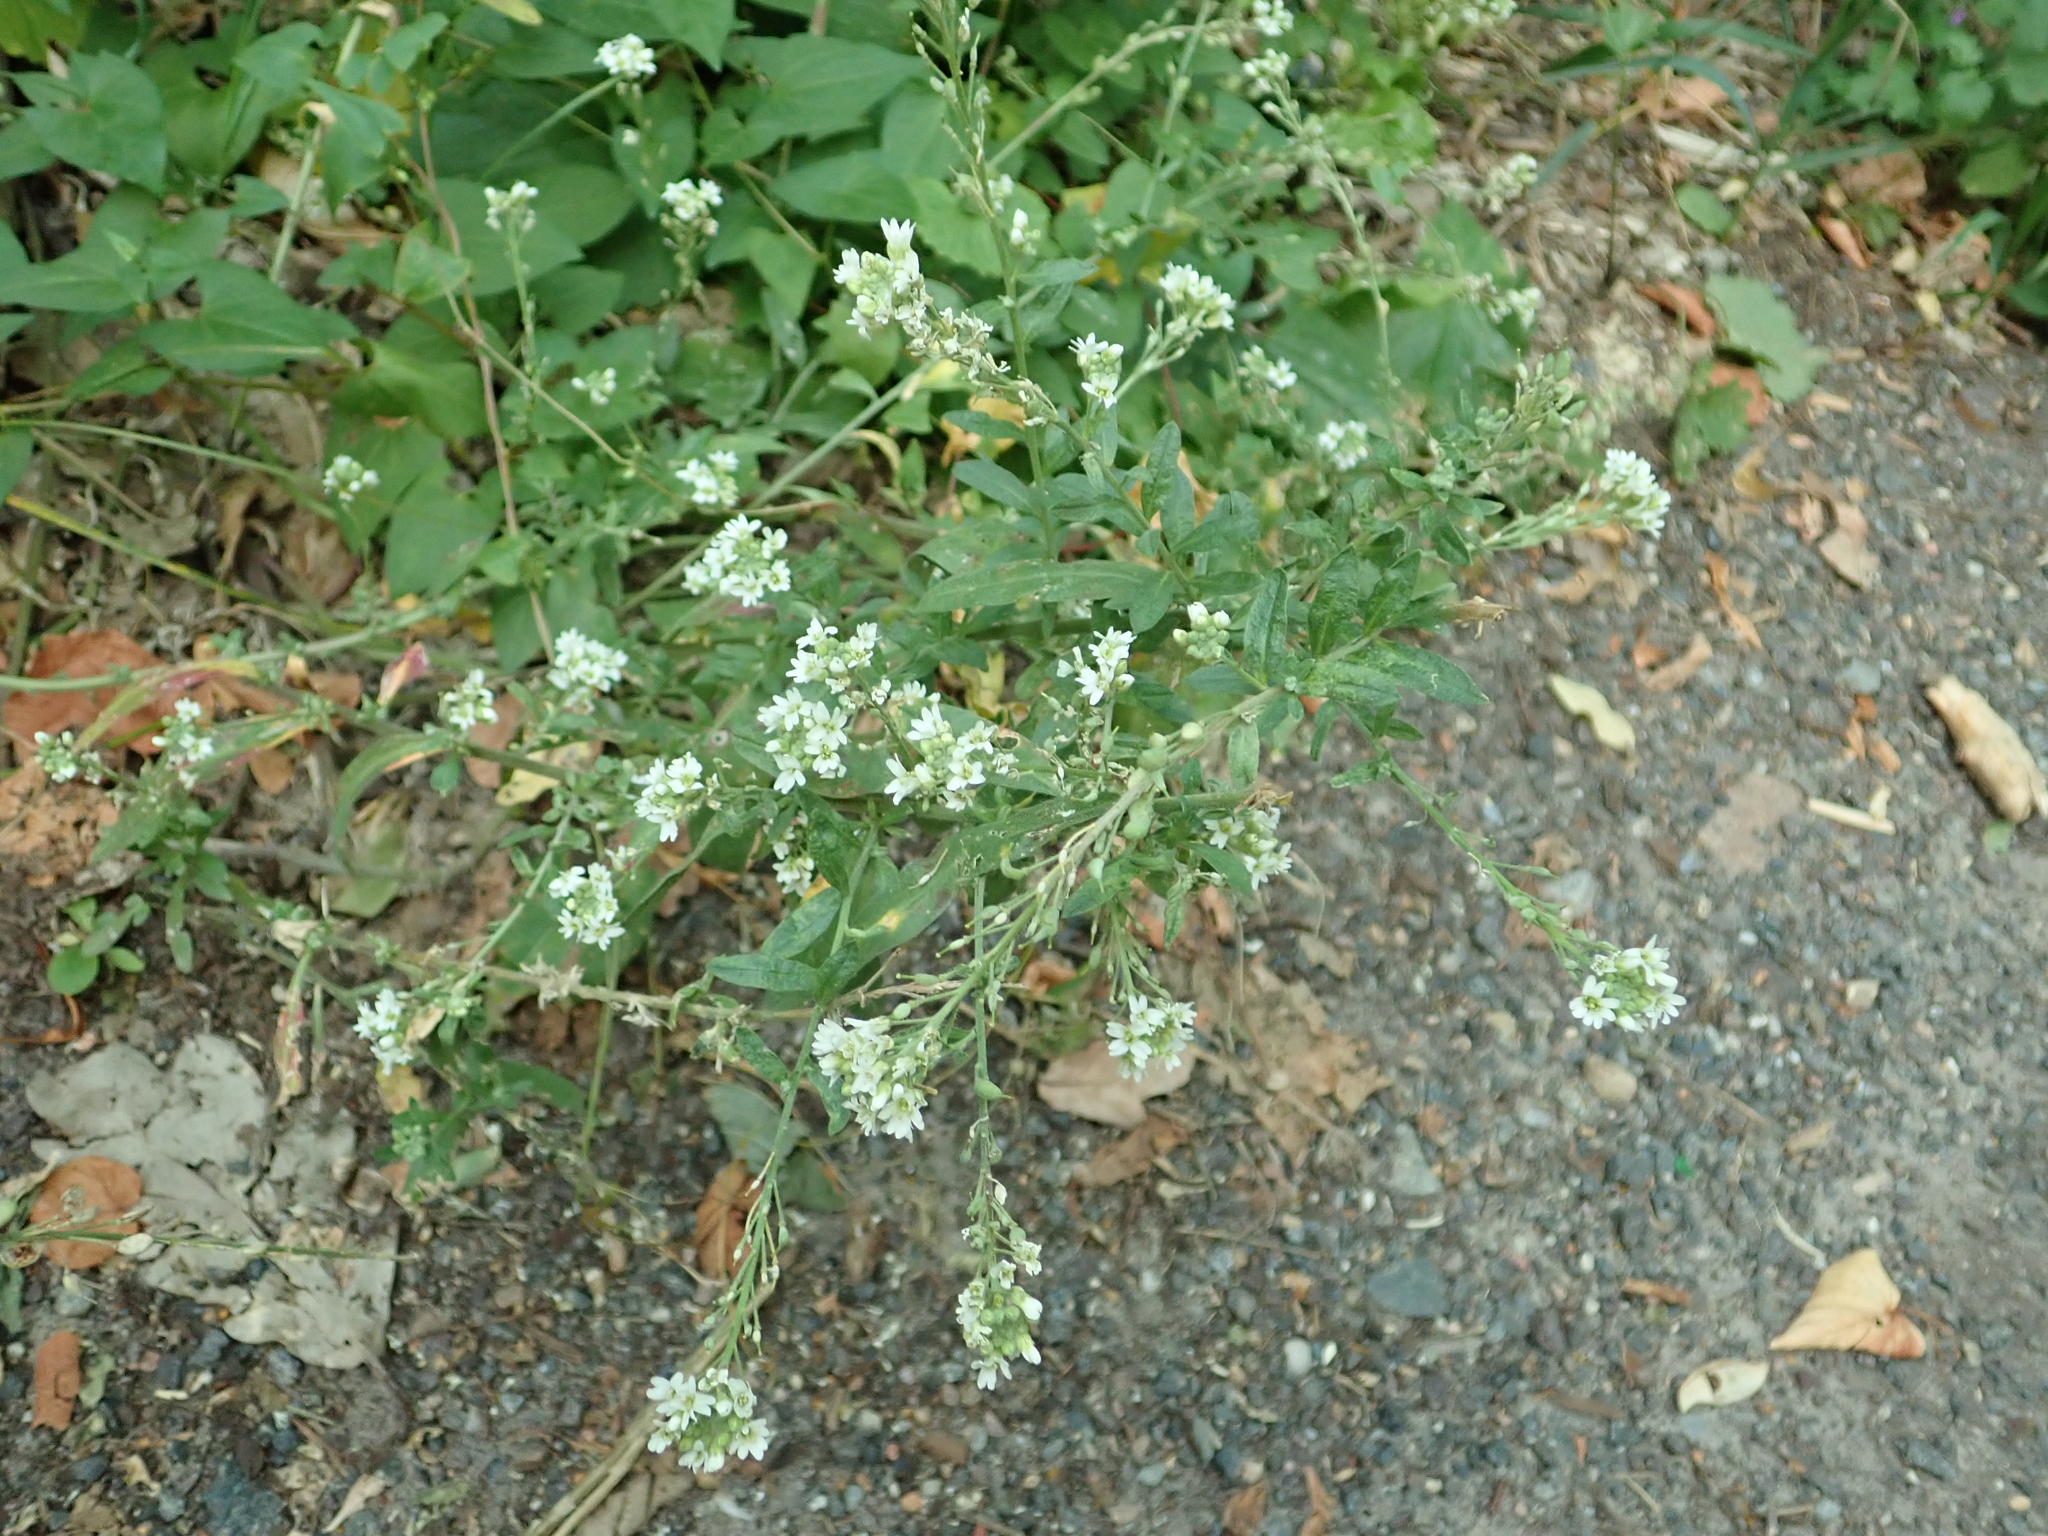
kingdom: Plantae
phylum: Tracheophyta
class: Magnoliopsida
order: Brassicales
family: Brassicaceae
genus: Berteroa
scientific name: Berteroa incana
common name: Hoary alison
